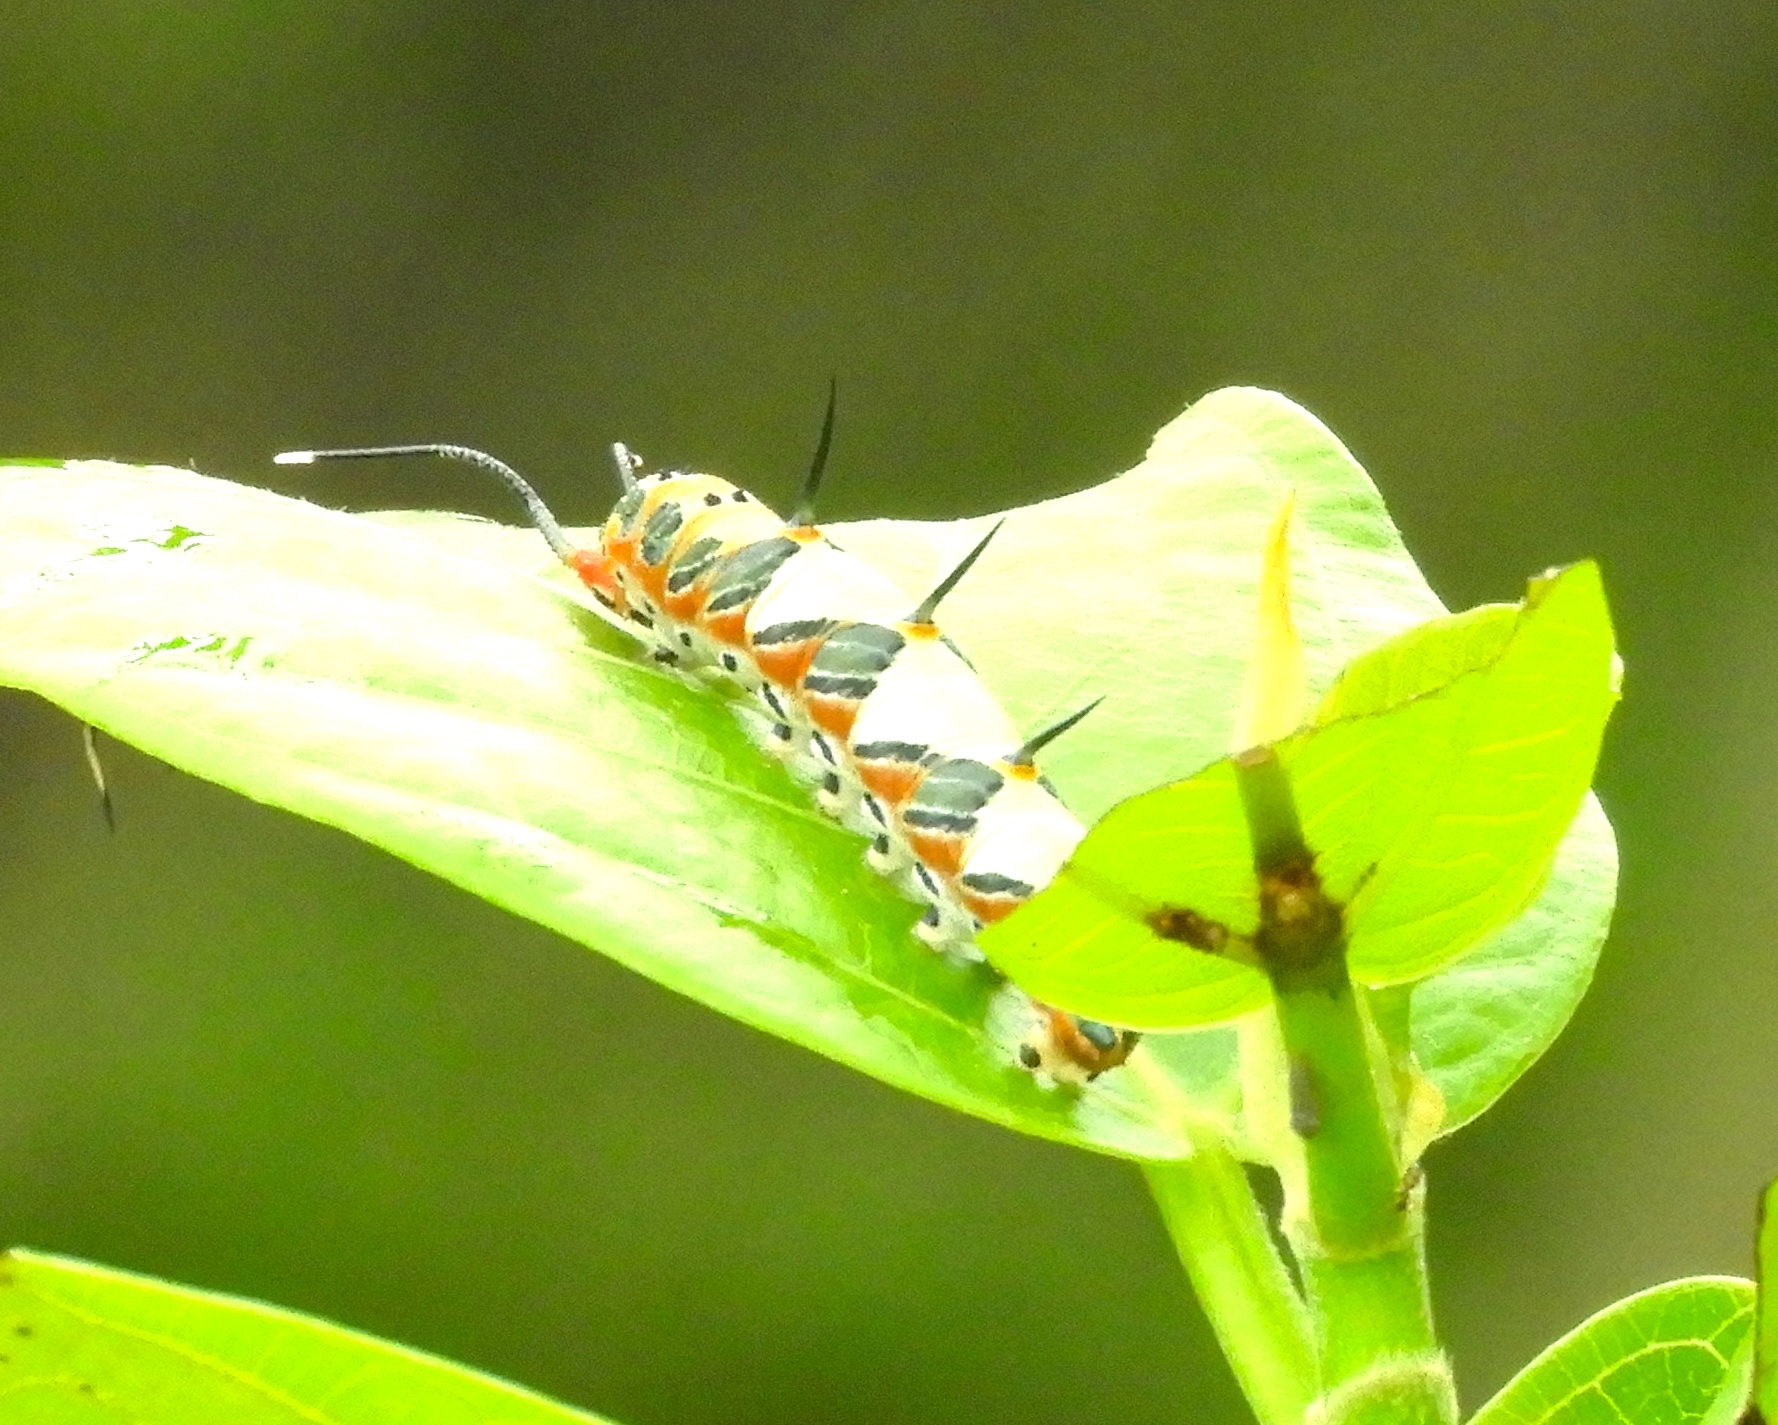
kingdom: Animalia
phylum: Arthropoda
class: Insecta
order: Lepidoptera
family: Nymphalidae
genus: Marpesia
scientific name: Marpesia petreus
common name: Red dagger wing
